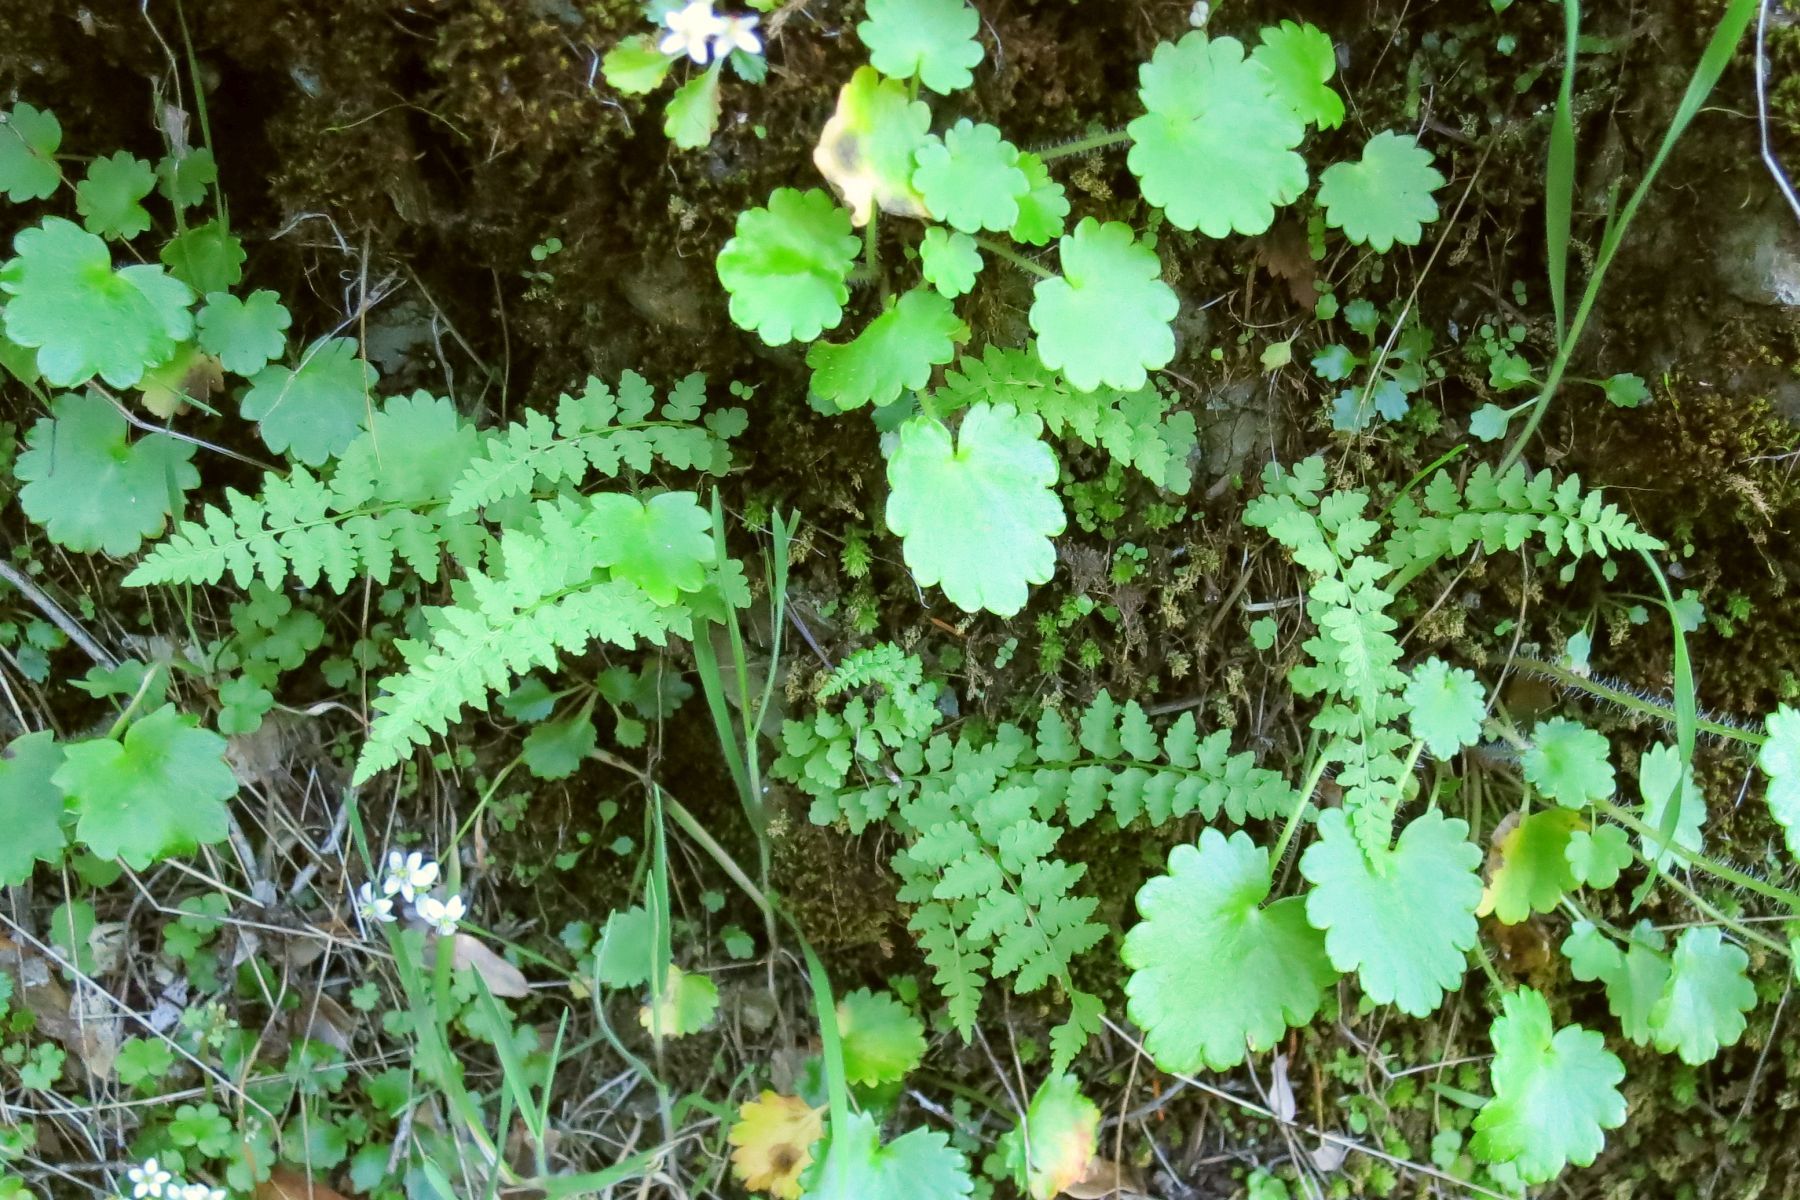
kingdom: Plantae
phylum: Tracheophyta
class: Polypodiopsida
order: Polypodiales
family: Cystopteridaceae
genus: Cystopteris
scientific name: Cystopteris fragilis
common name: Brittle bladder fern
